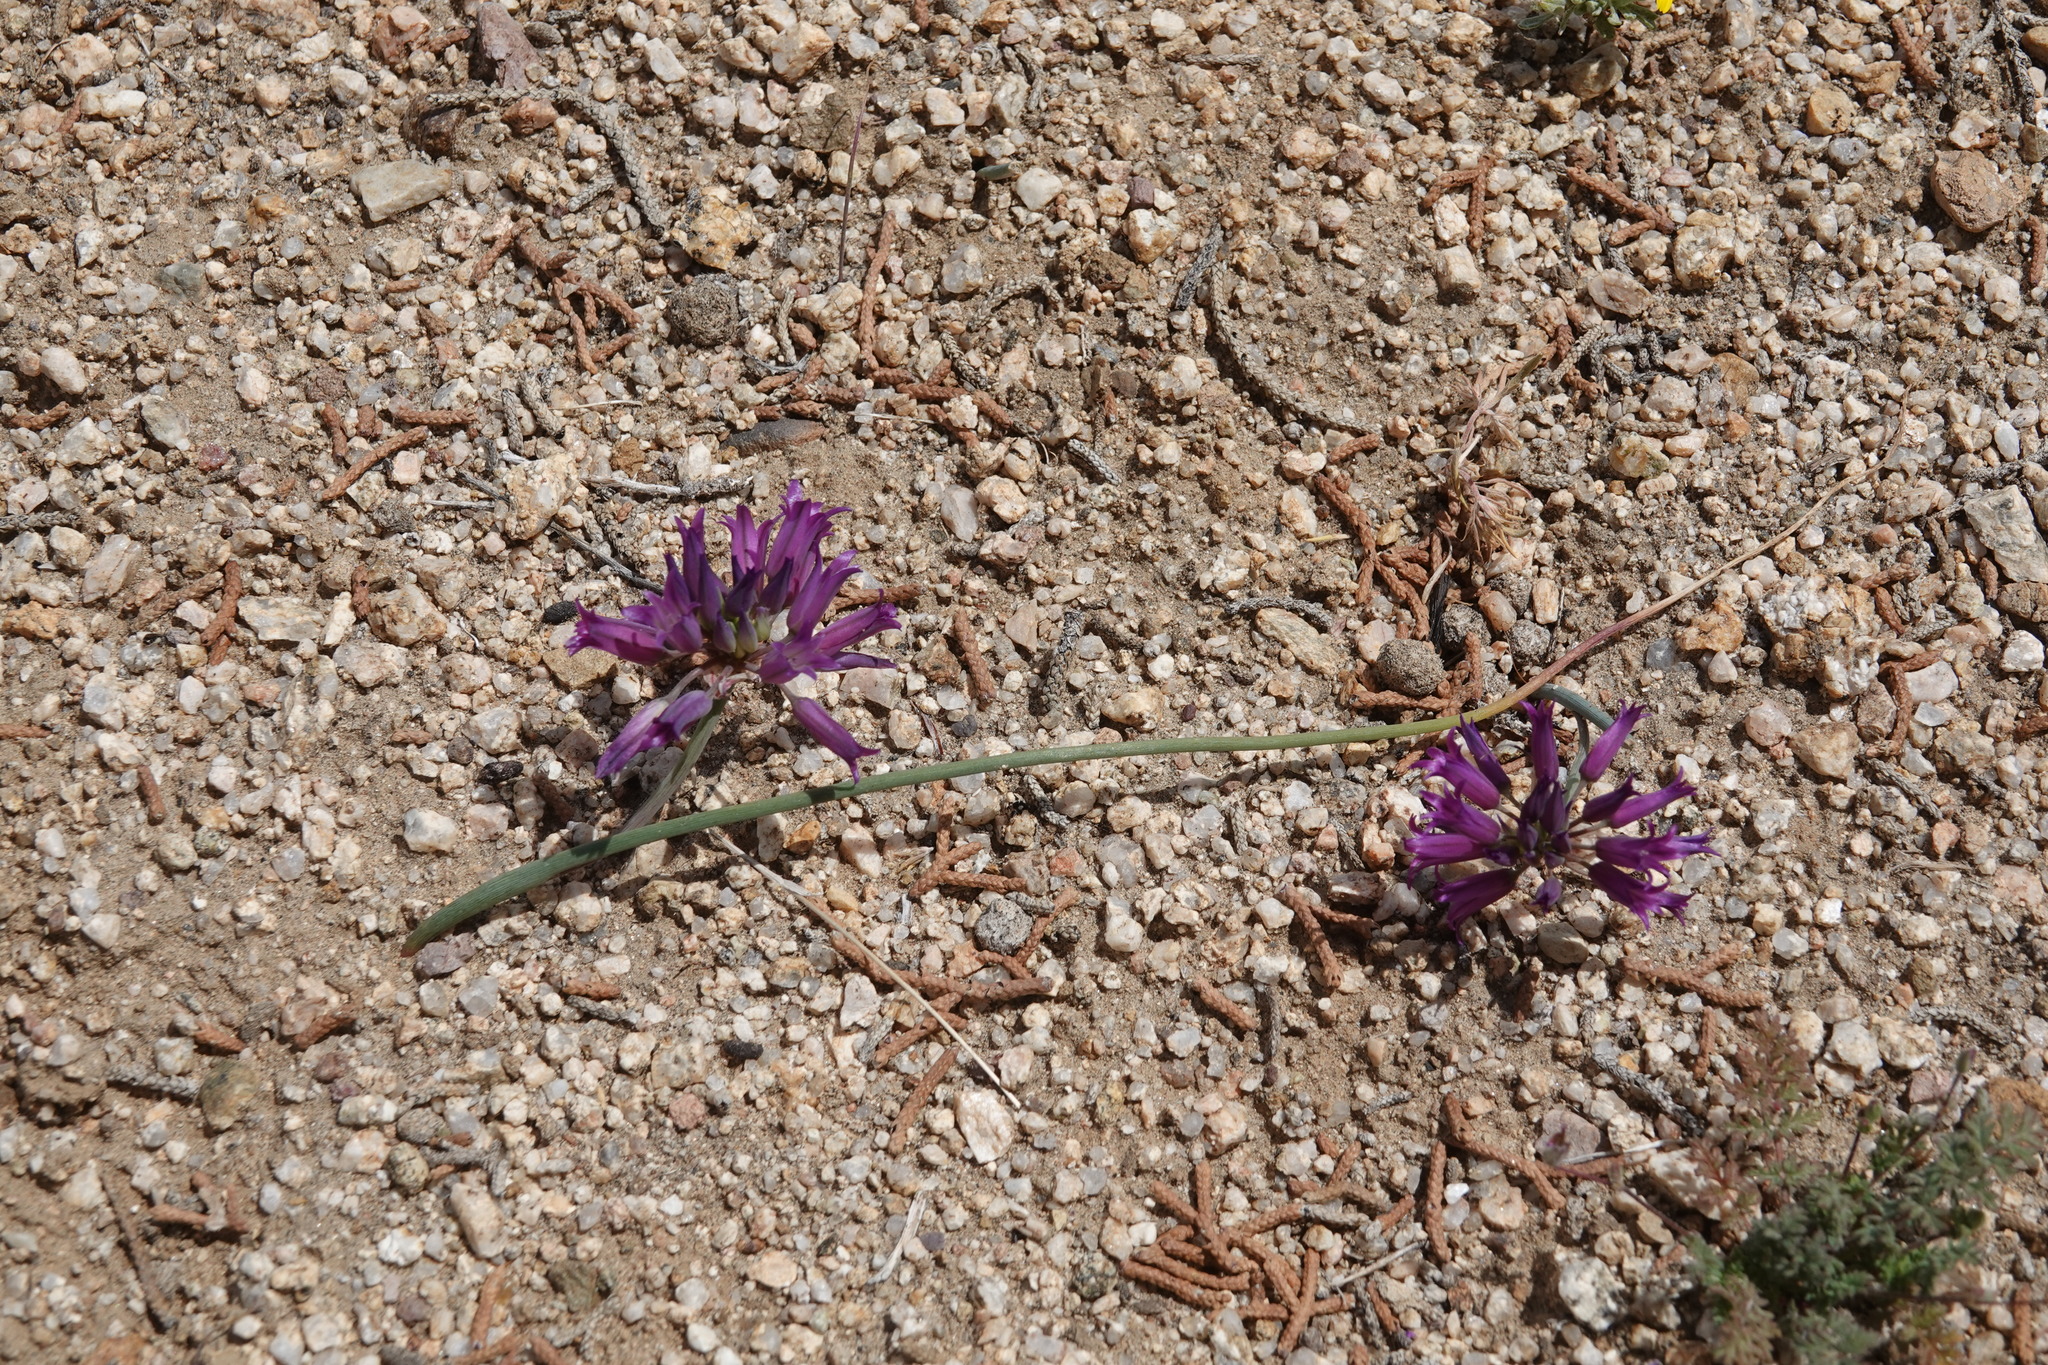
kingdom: Plantae
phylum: Tracheophyta
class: Liliopsida
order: Asparagales
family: Amaryllidaceae
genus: Allium
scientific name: Allium fimbriatum
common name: Fringed onion
